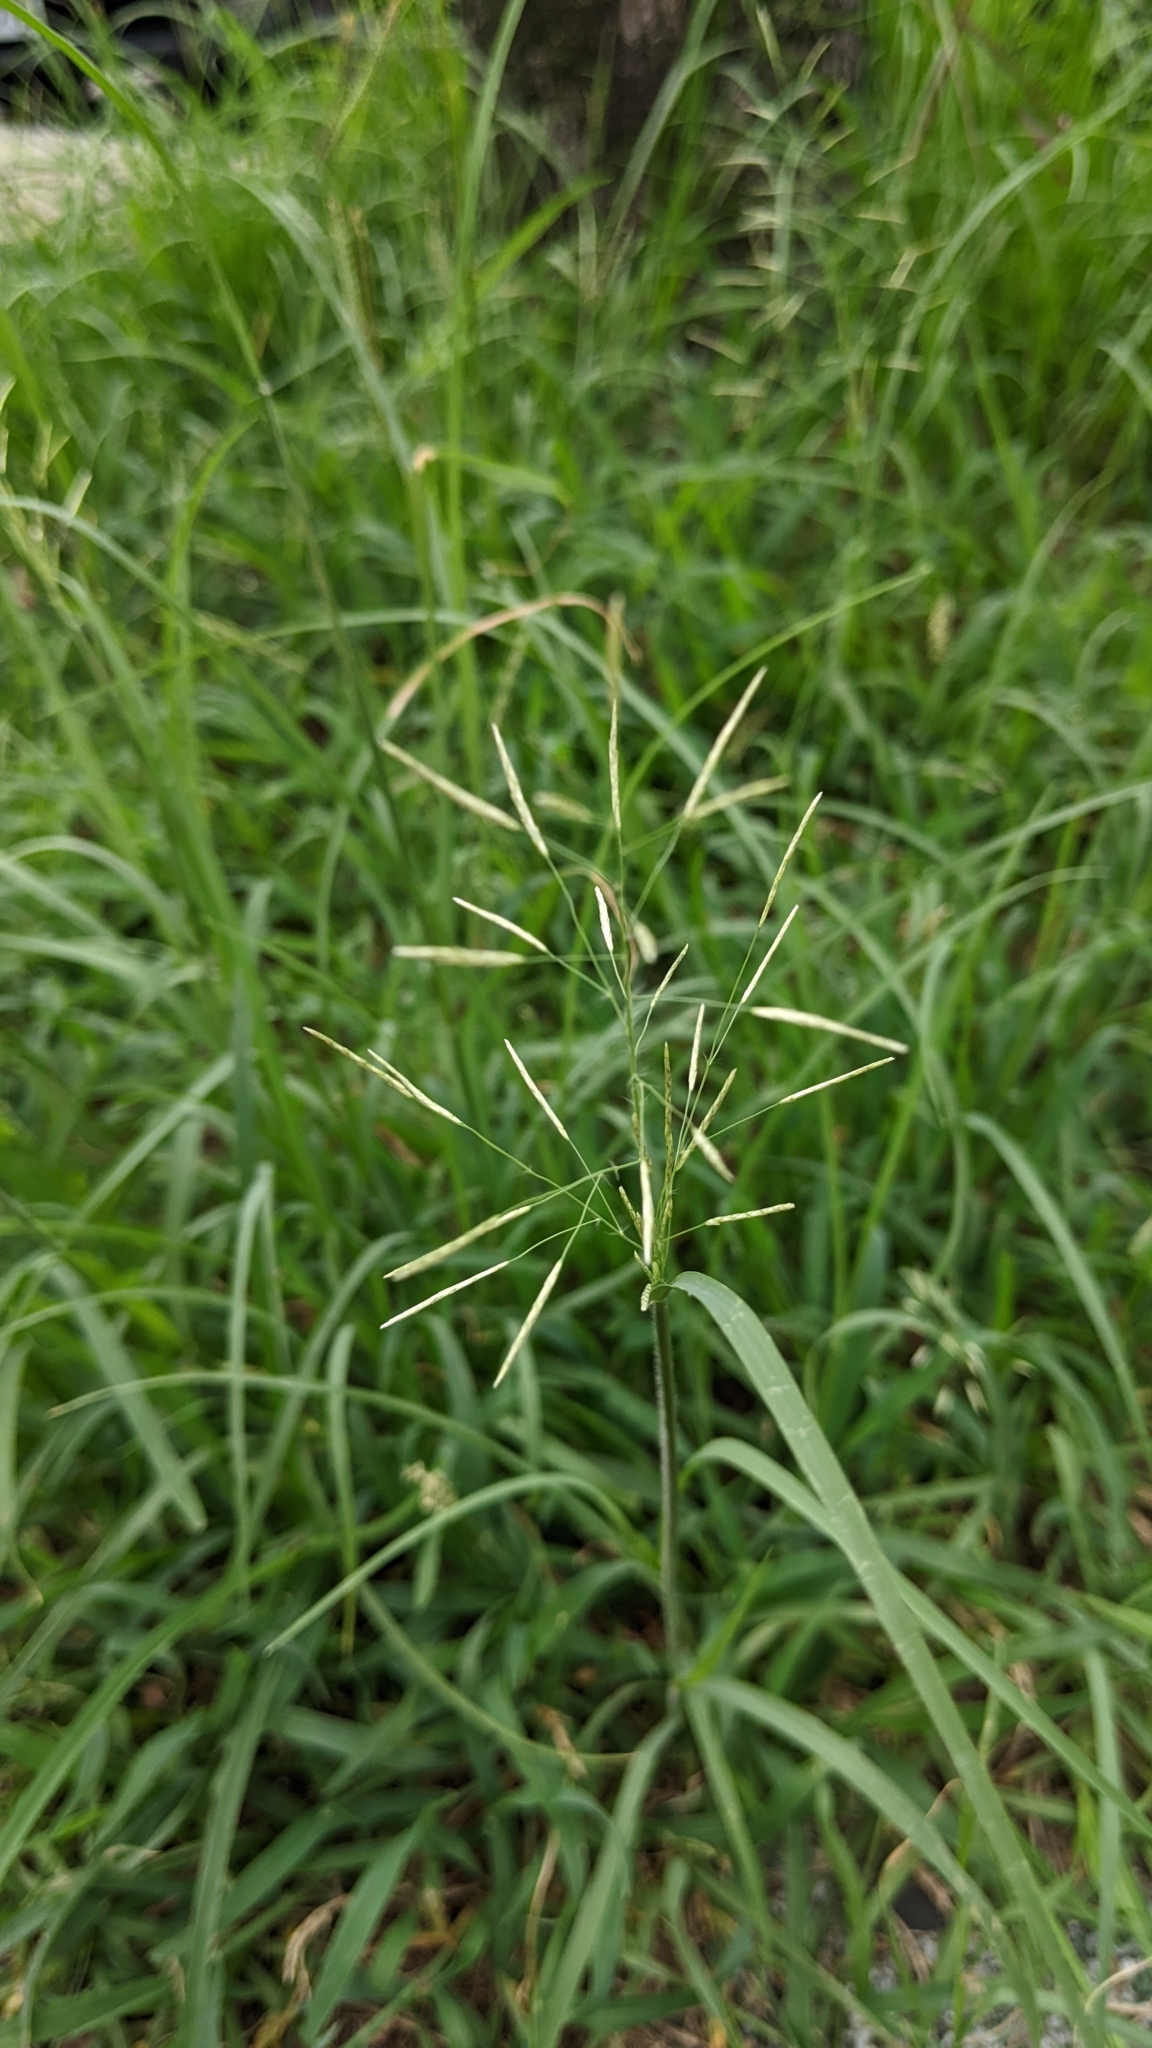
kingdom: Plantae
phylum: Tracheophyta
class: Liliopsida
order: Poales
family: Poaceae
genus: Eragrostis
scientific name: Eragrostis tenuifolia
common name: Elastic grass
